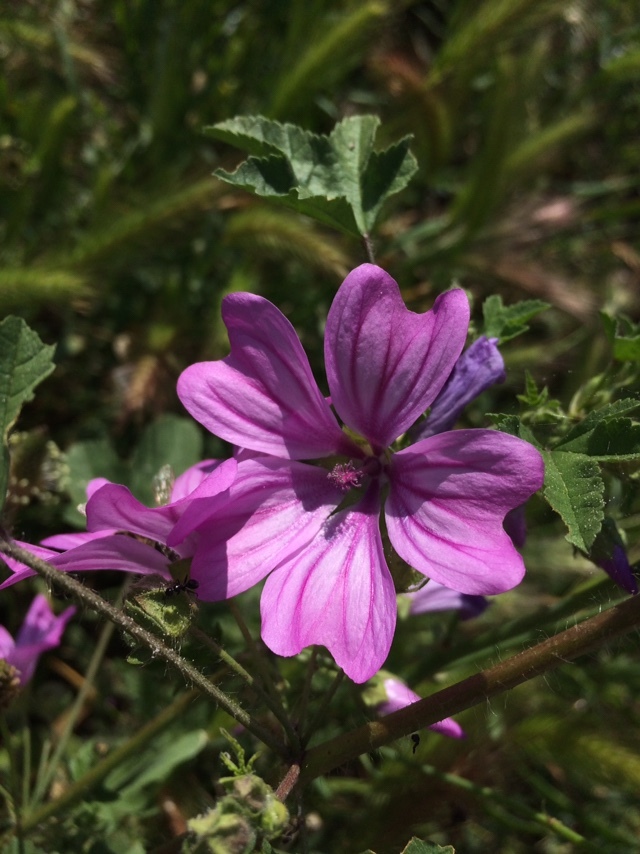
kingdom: Plantae
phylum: Tracheophyta
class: Magnoliopsida
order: Malvales
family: Malvaceae
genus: Malva
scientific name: Malva sylvestris
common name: Common mallow
